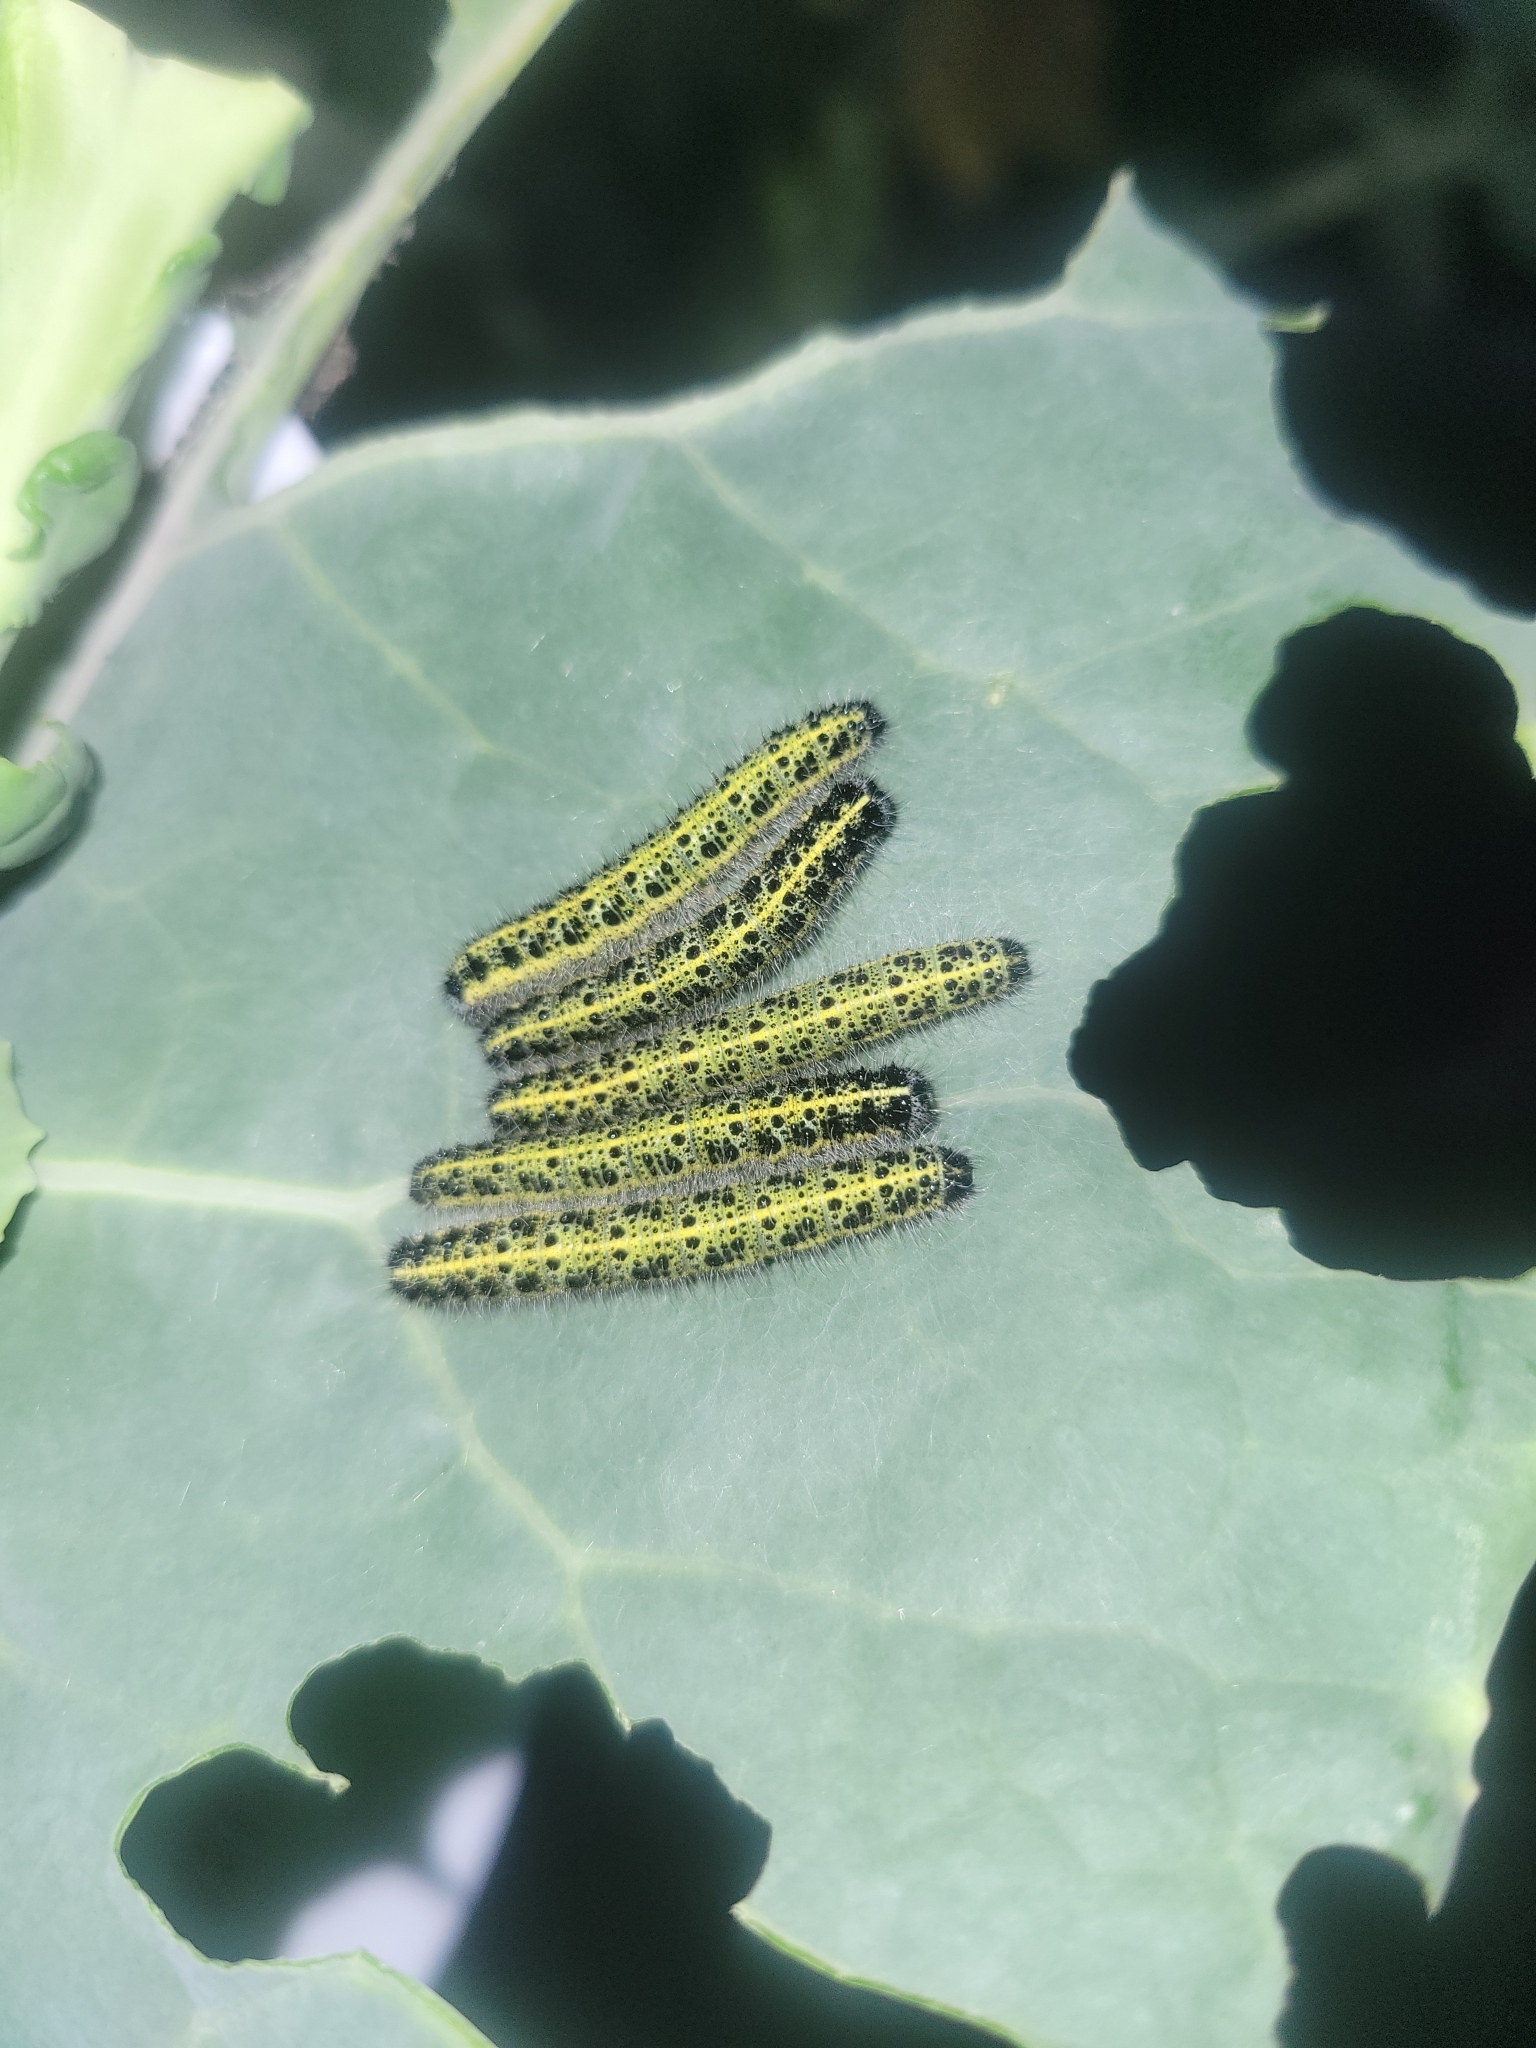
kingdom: Animalia
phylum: Arthropoda
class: Insecta
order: Lepidoptera
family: Pieridae
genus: Pieris
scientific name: Pieris brassicae
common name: Large white
